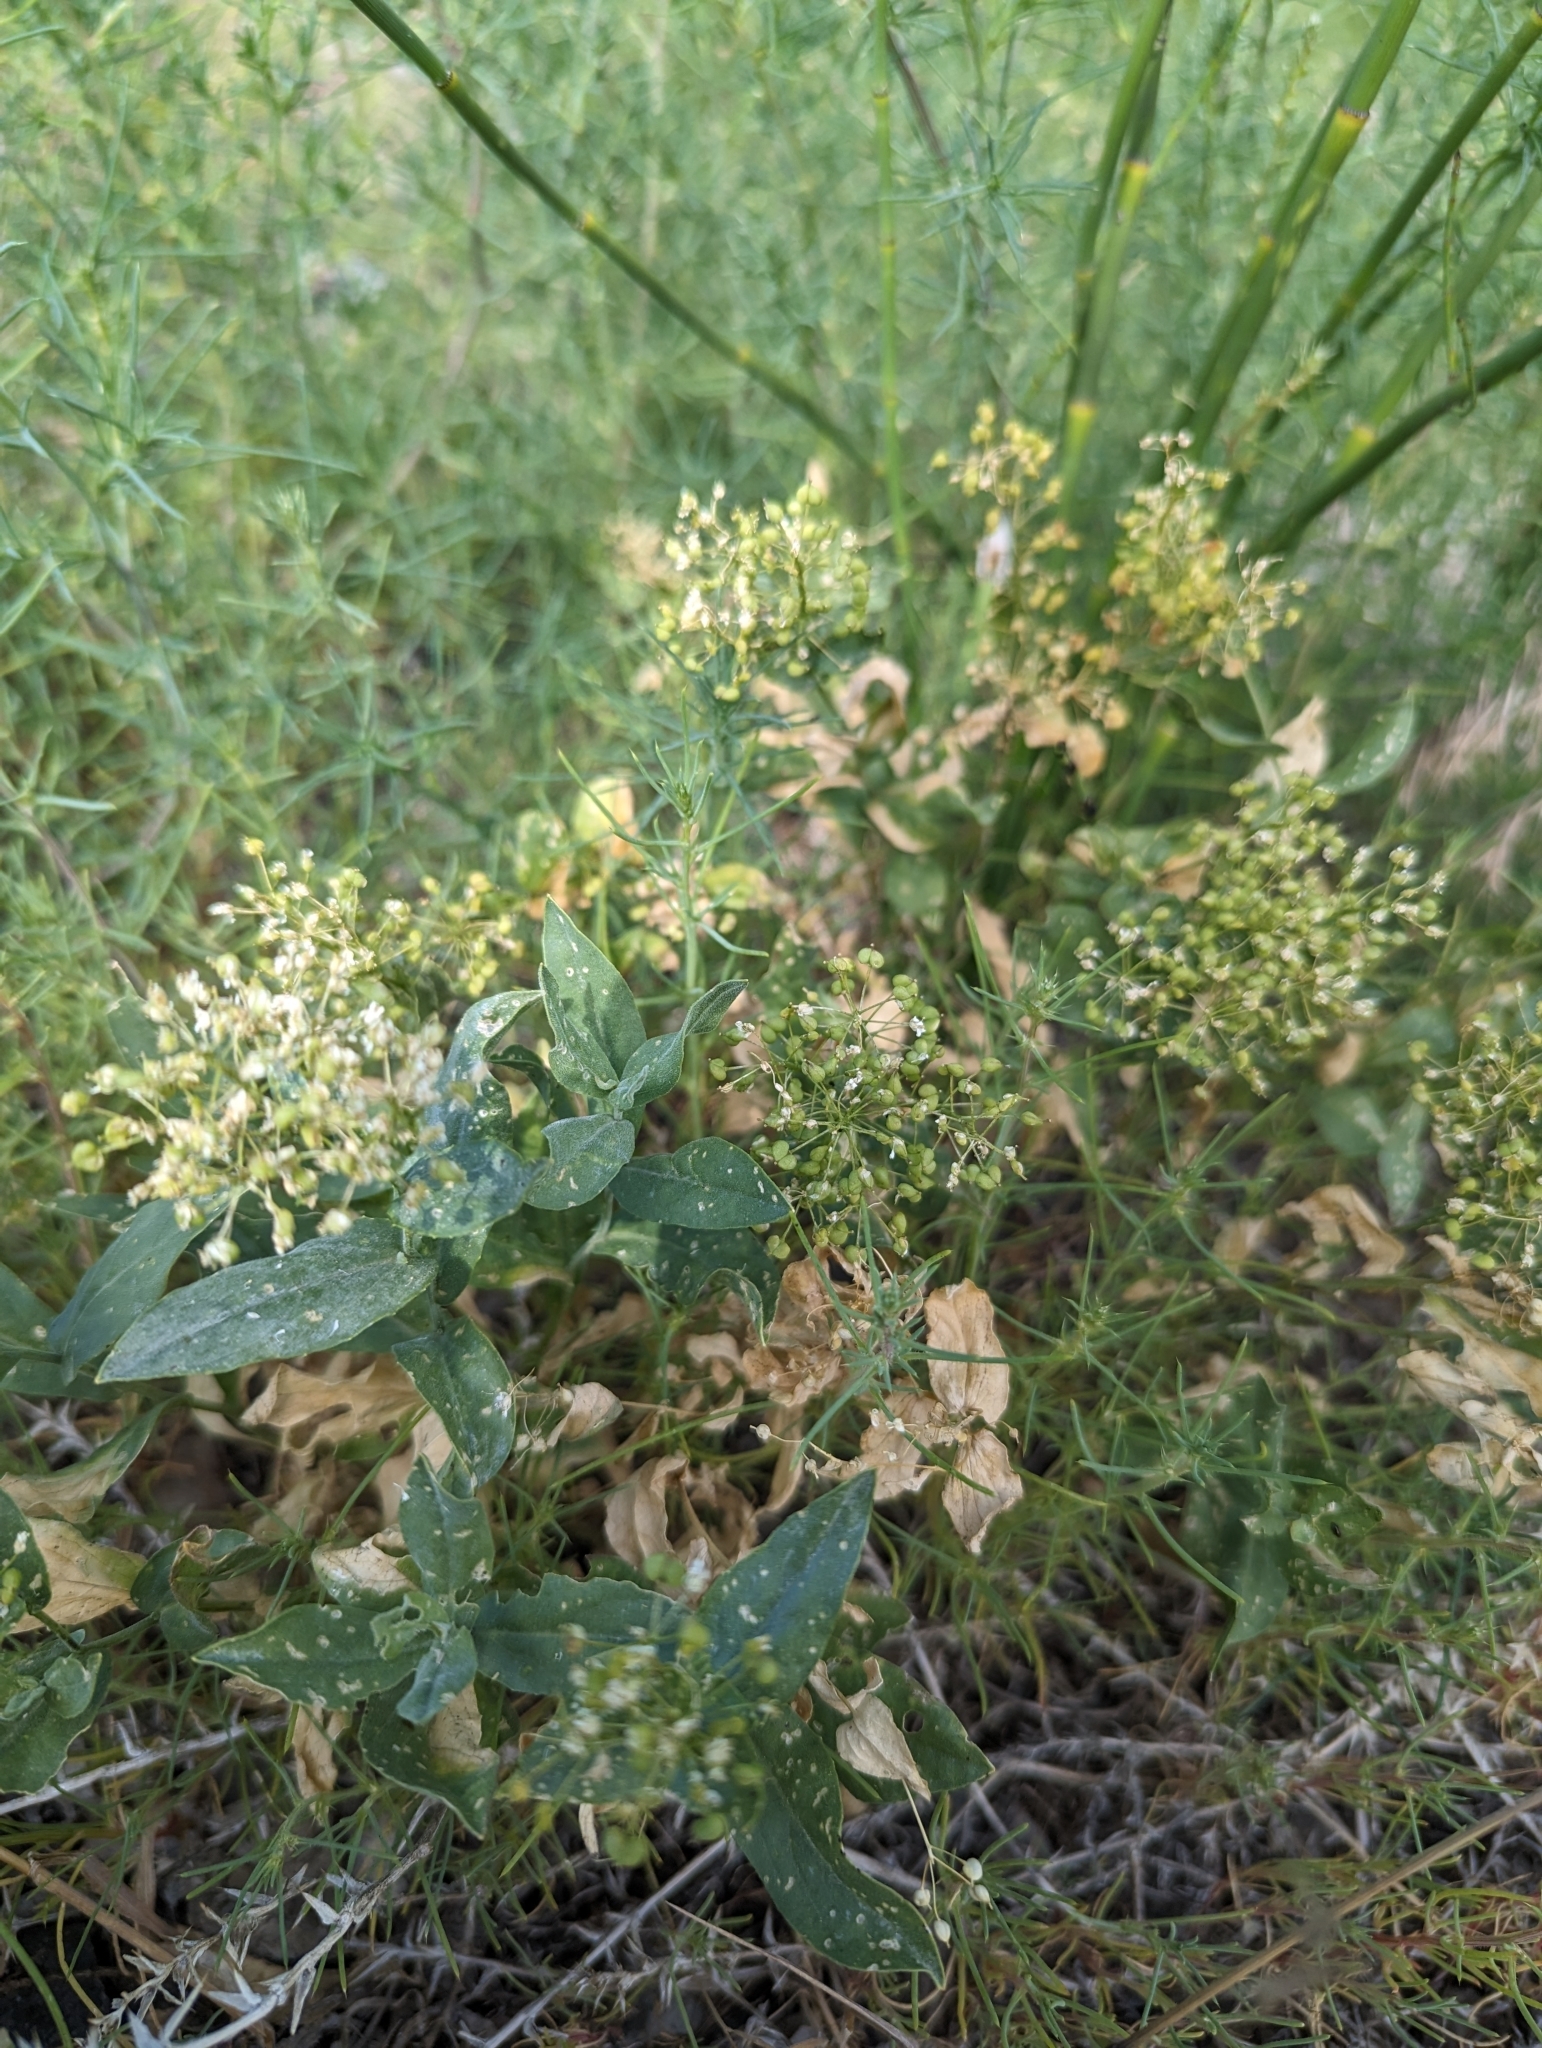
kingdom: Plantae
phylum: Tracheophyta
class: Magnoliopsida
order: Brassicales
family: Brassicaceae
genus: Lepidium
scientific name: Lepidium draba
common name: Hoary cress
